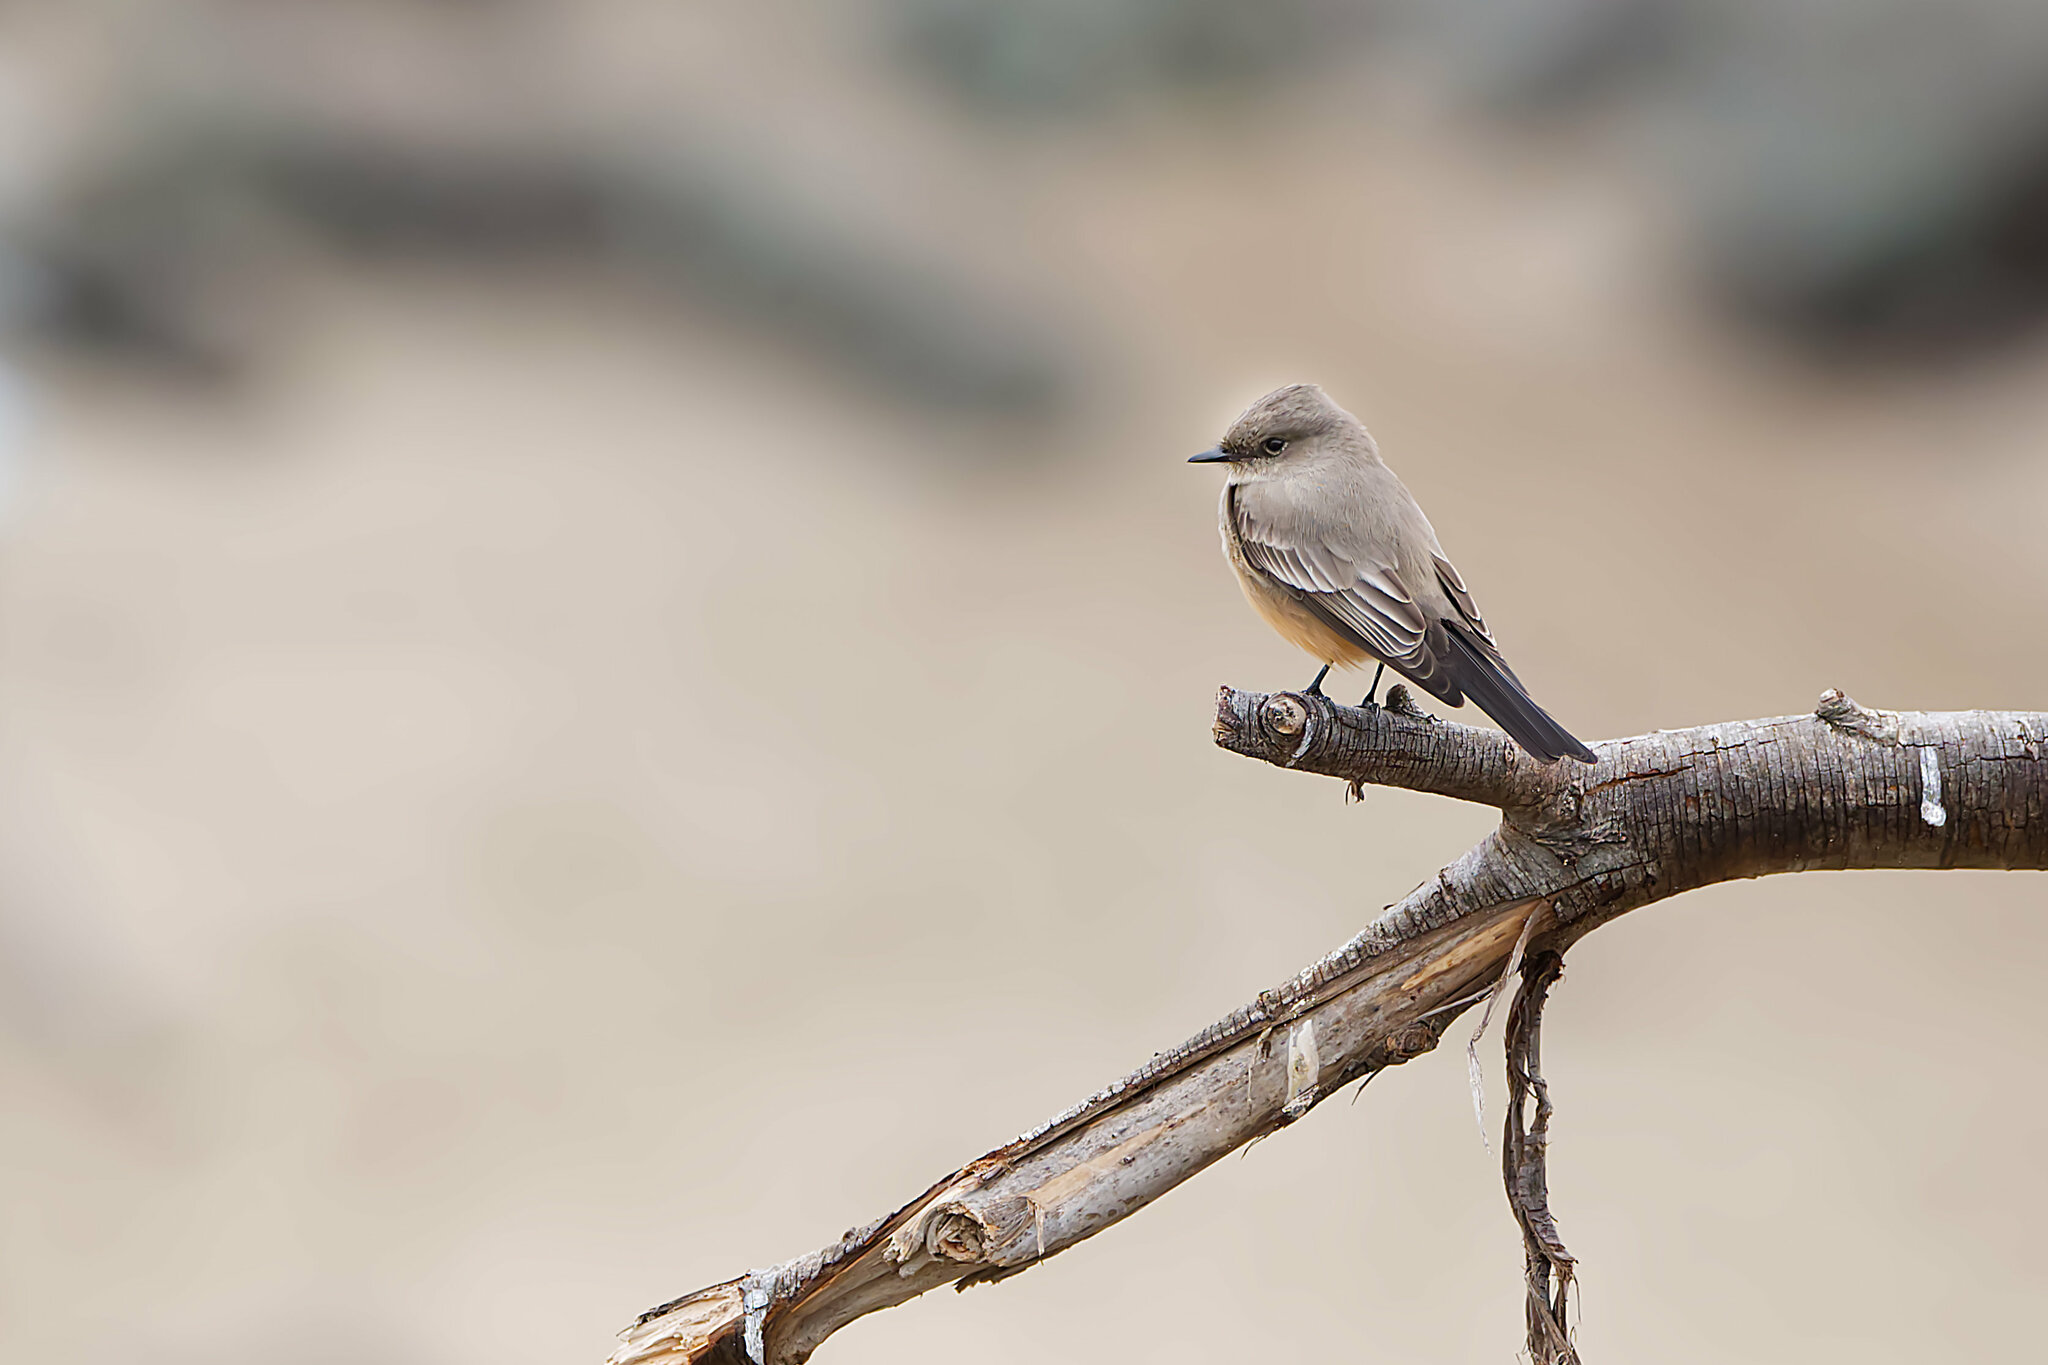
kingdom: Animalia
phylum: Chordata
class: Aves
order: Passeriformes
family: Tyrannidae
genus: Sayornis
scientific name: Sayornis saya
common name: Say's phoebe
